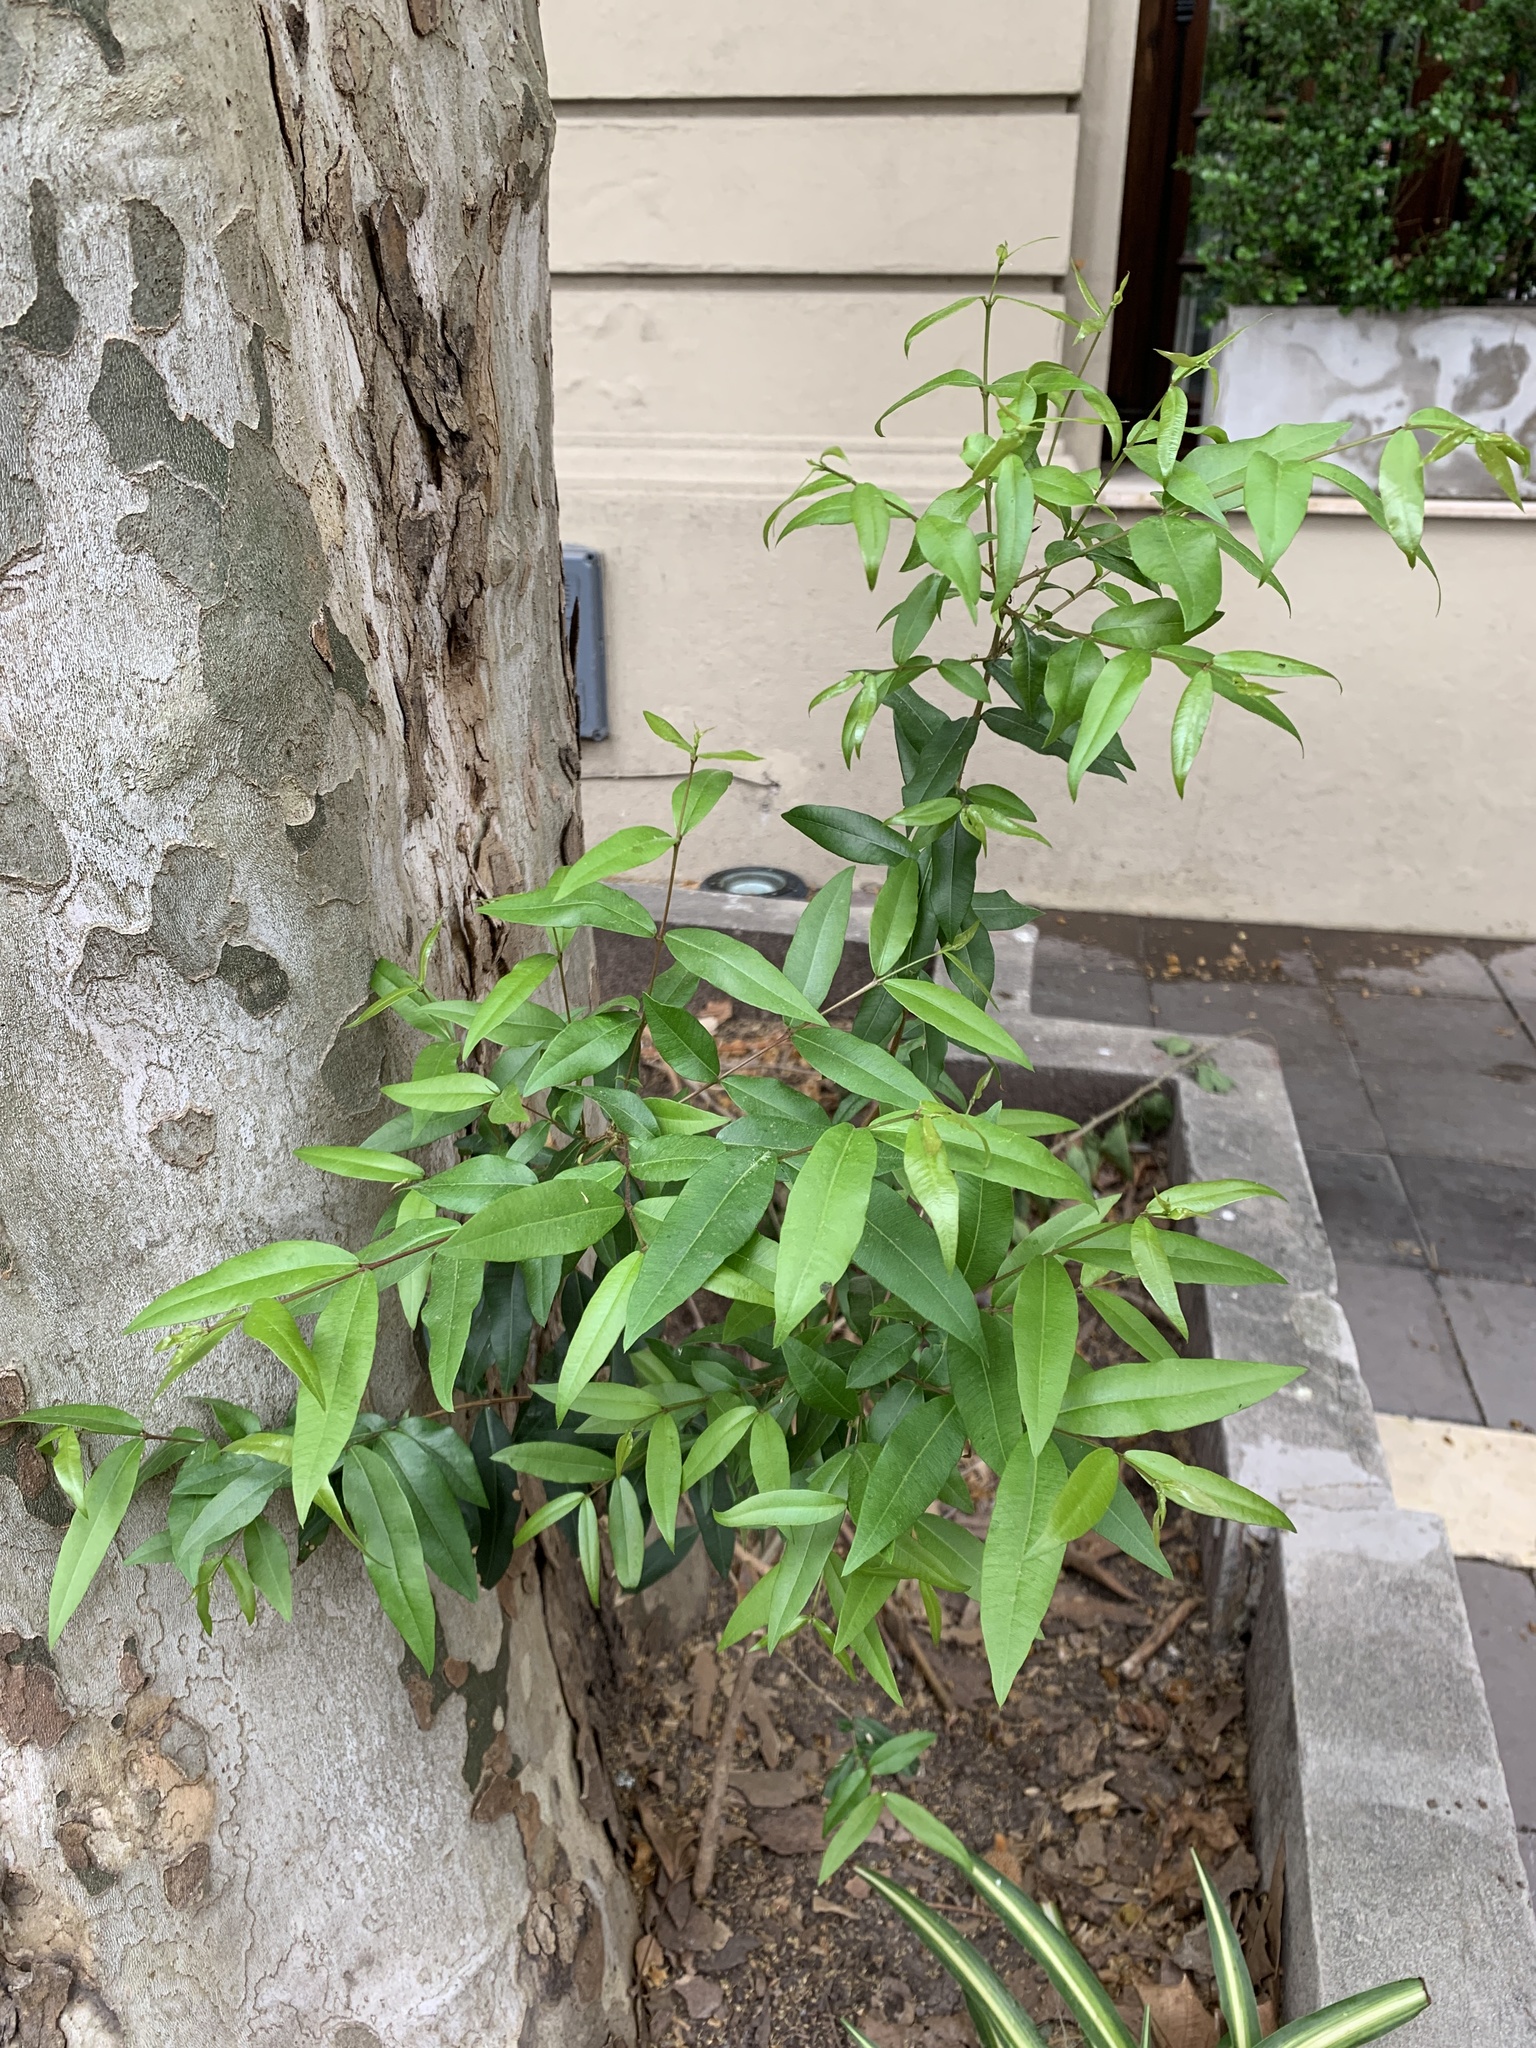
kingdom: Plantae
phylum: Tracheophyta
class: Magnoliopsida
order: Myrtales
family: Myrtaceae
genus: Blepharocalyx
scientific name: Blepharocalyx salicifolius
